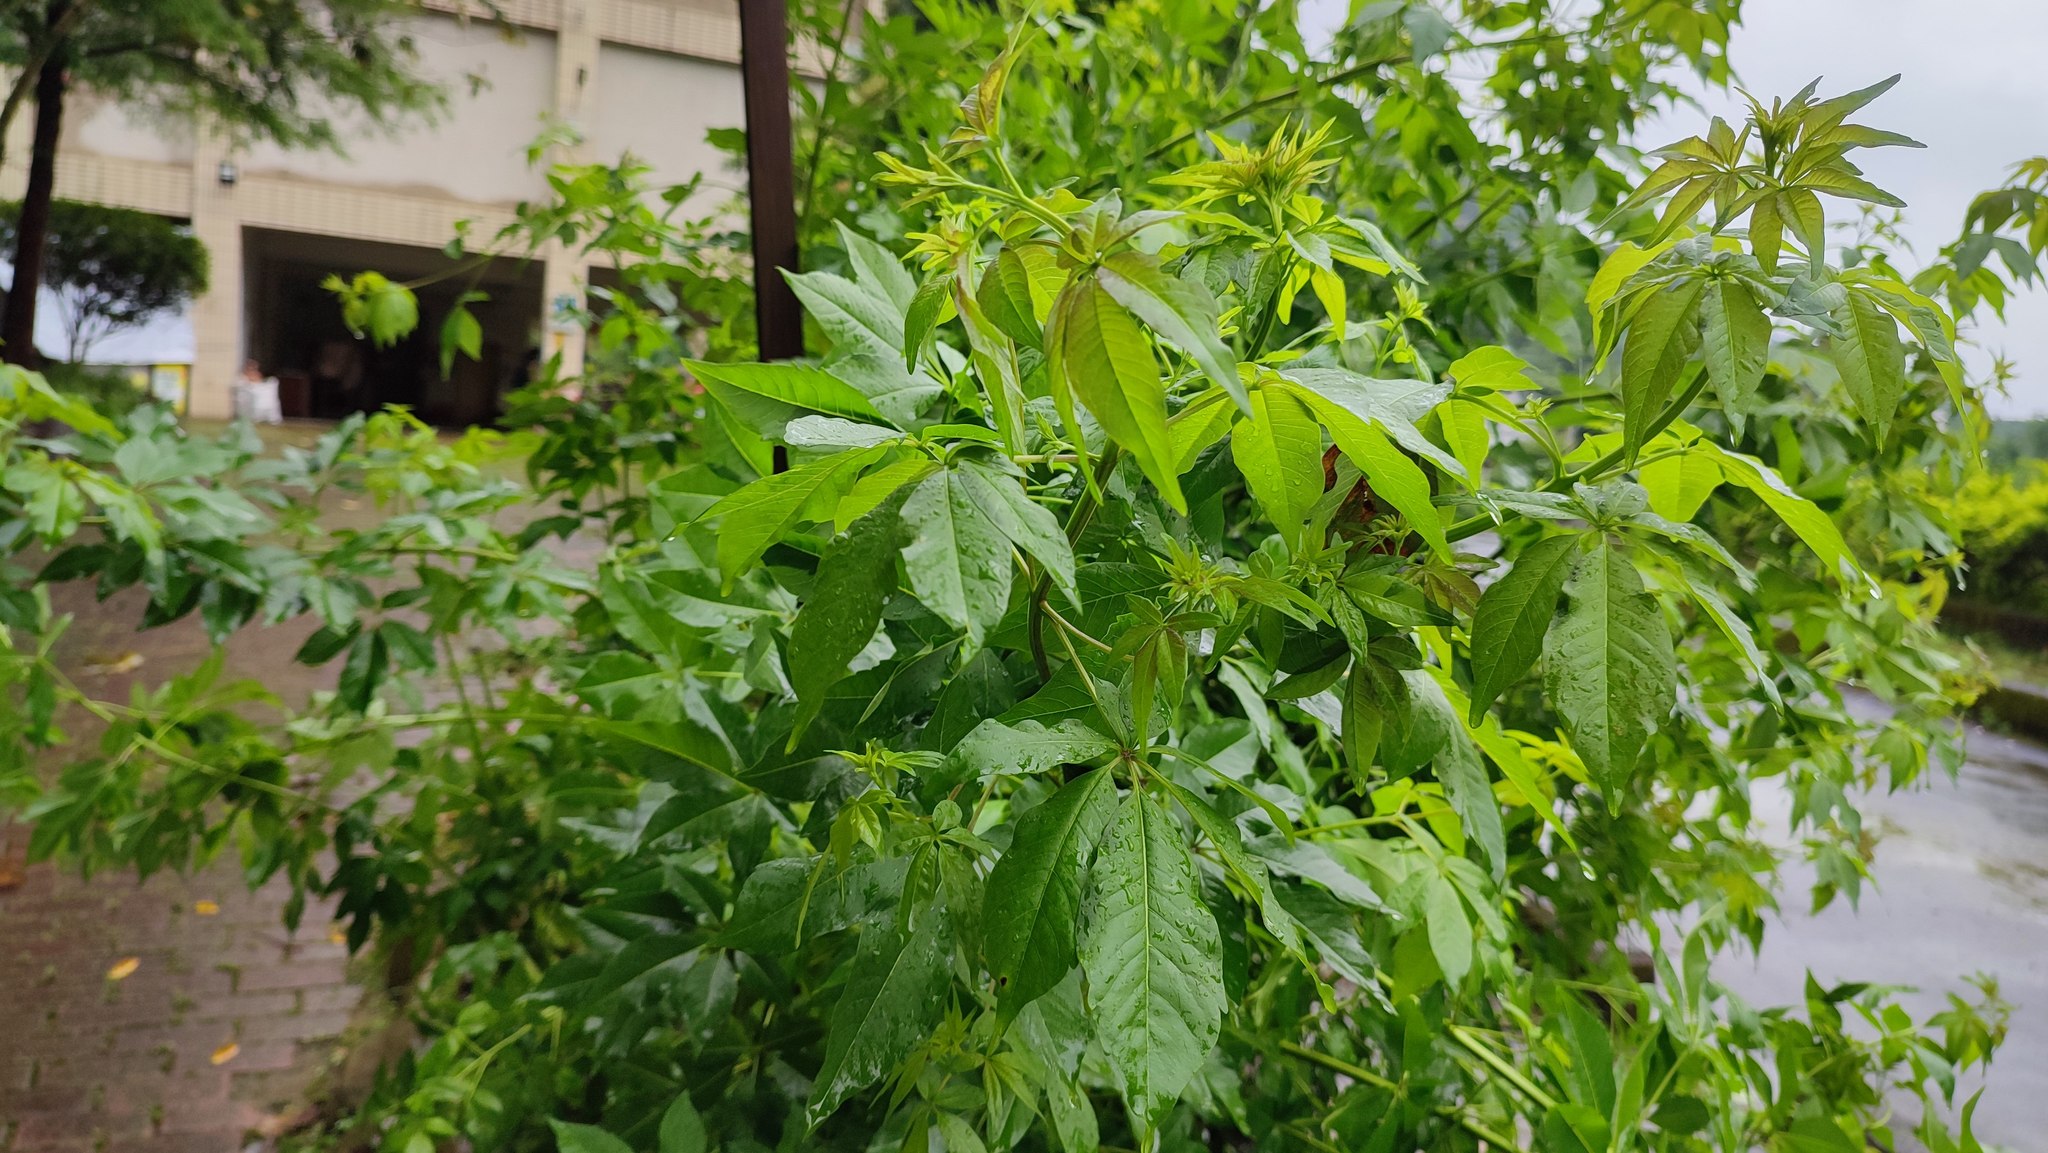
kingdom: Plantae
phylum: Tracheophyta
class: Magnoliopsida
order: Lamiales
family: Lamiaceae
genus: Vitex
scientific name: Vitex negundo
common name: Chinese chastetree
